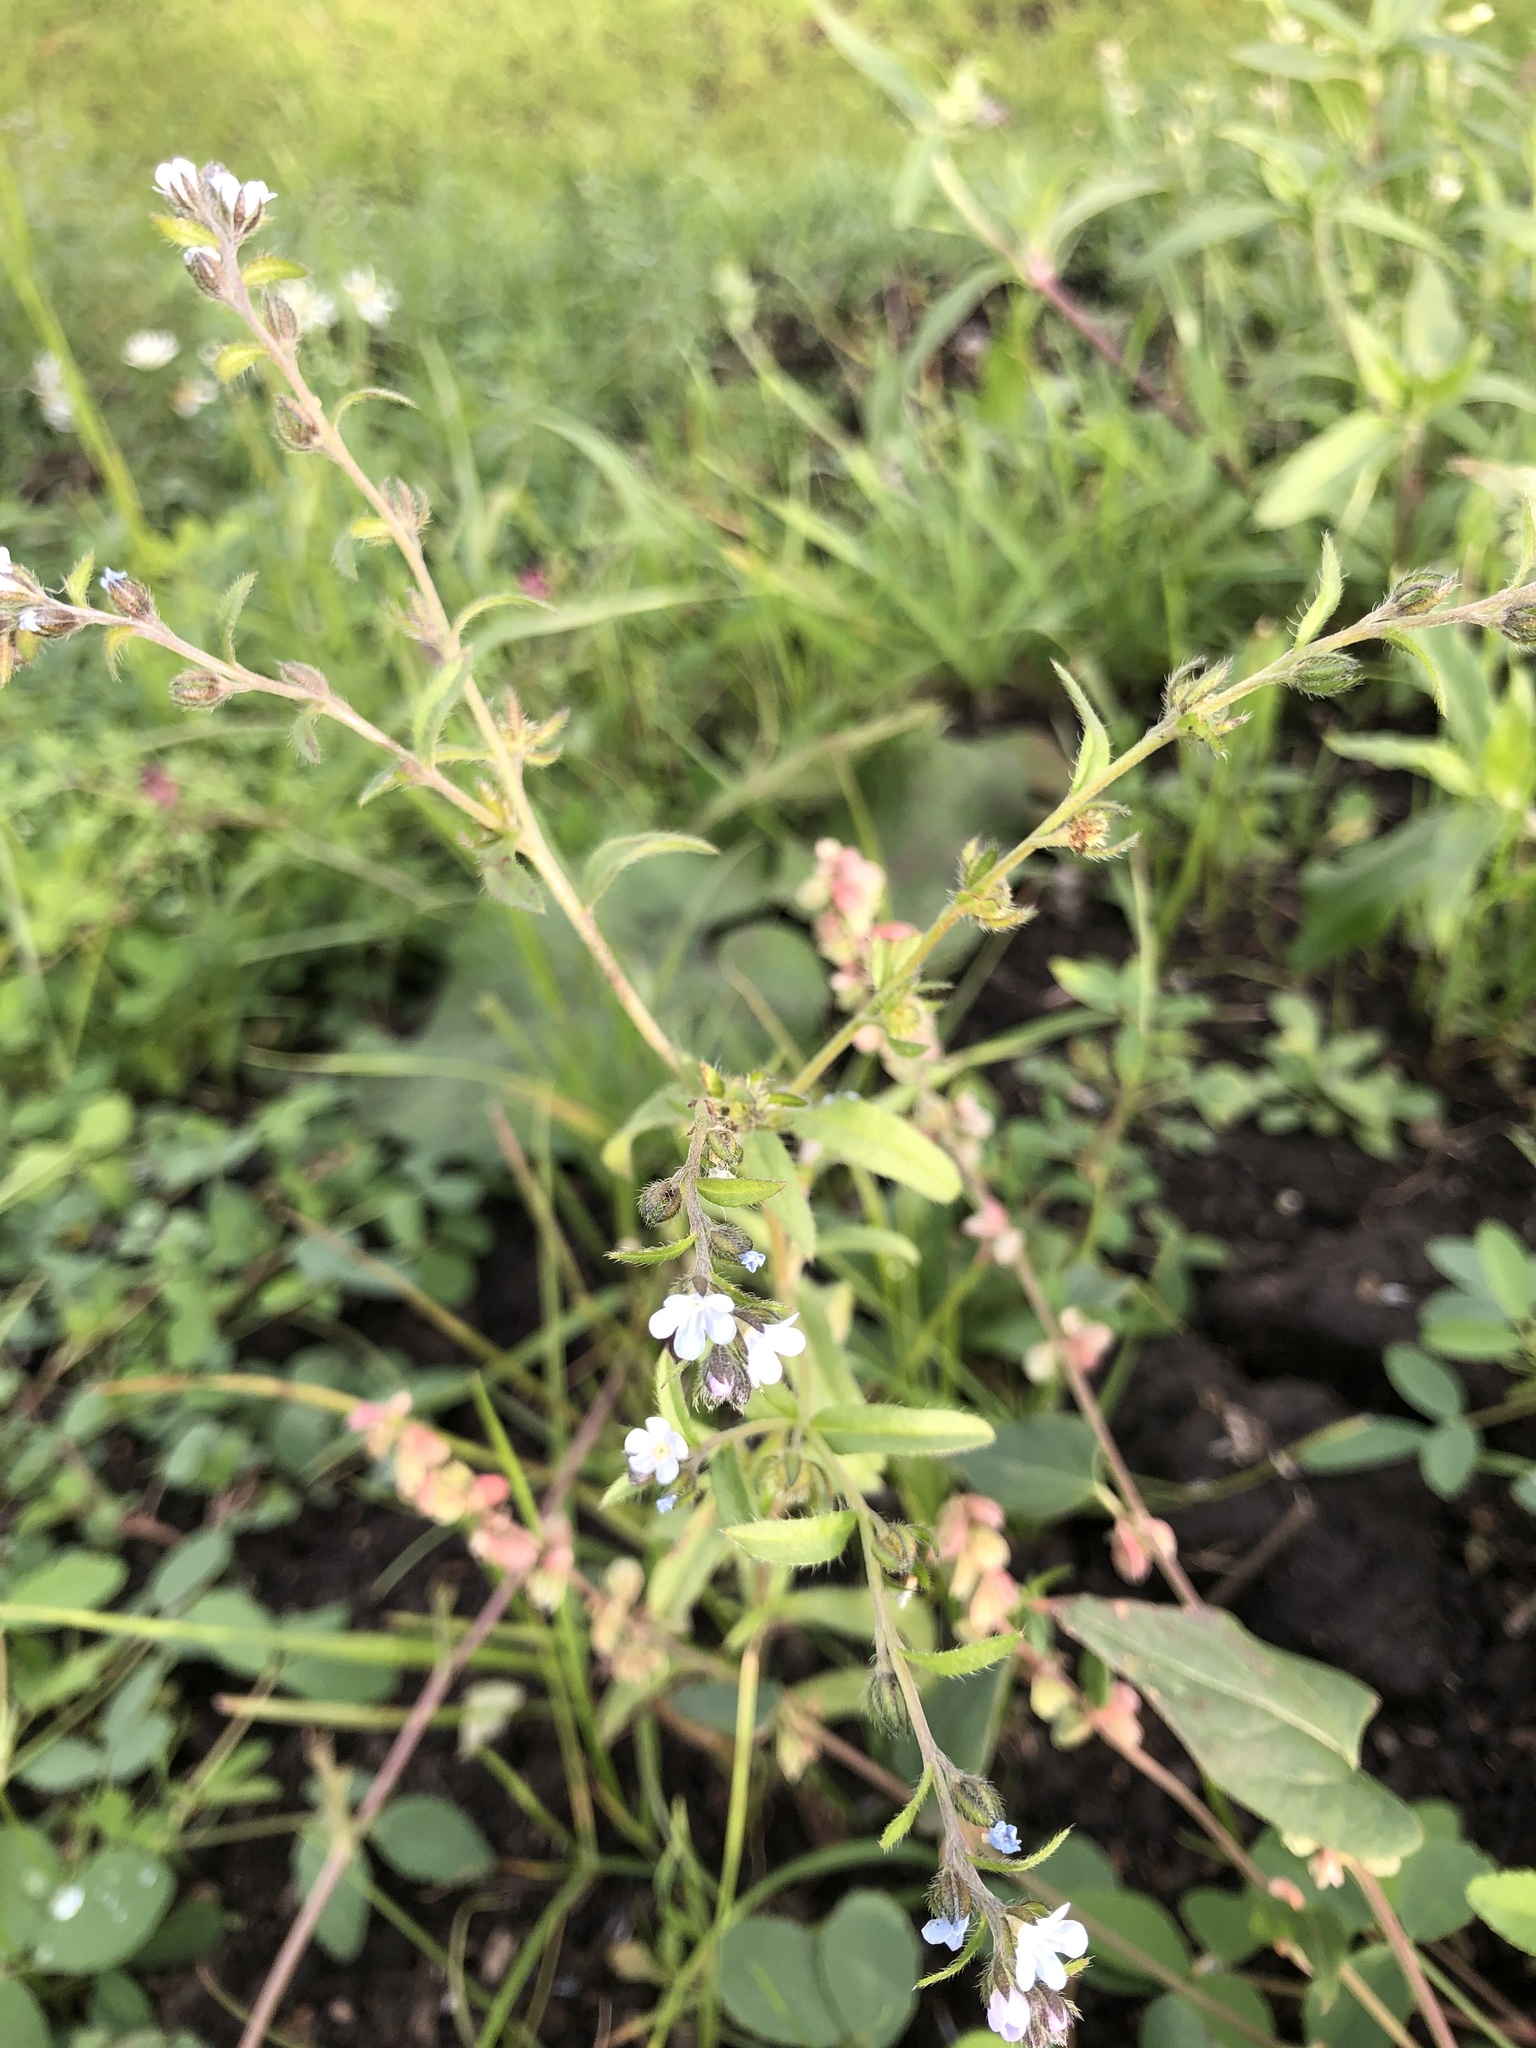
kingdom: Plantae
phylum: Tracheophyta
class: Magnoliopsida
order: Boraginales
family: Boraginaceae
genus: Lappula
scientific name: Lappula squarrosa
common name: European stickseed
